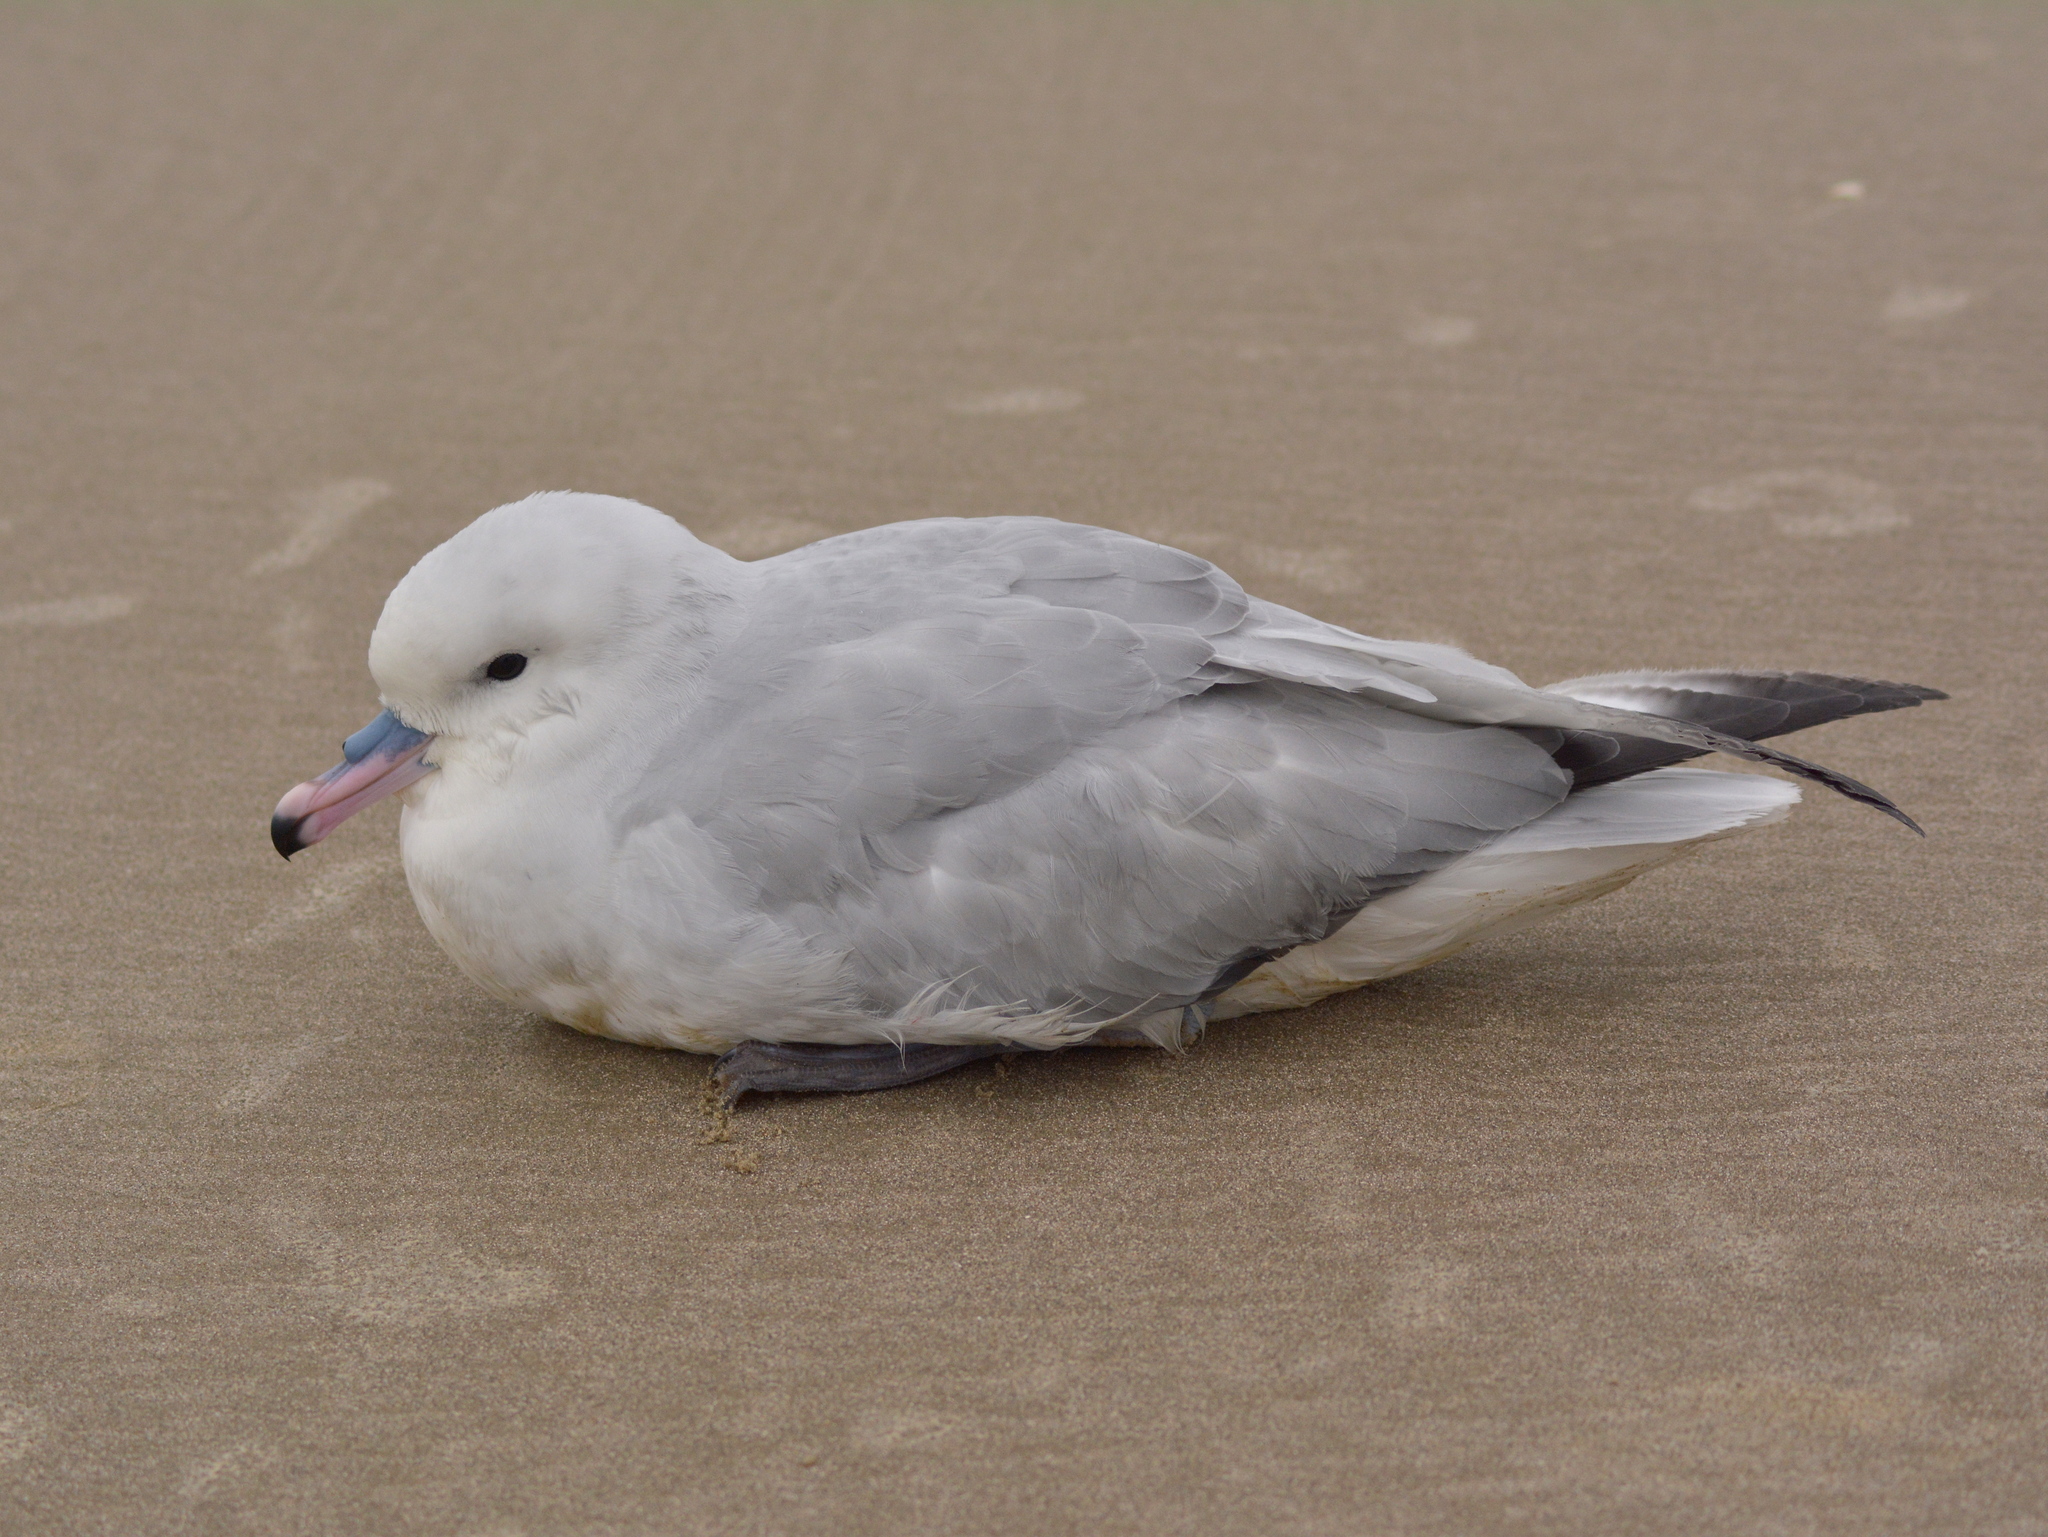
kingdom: Animalia
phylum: Chordata
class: Aves
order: Procellariiformes
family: Procellariidae
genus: Fulmarus
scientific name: Fulmarus glacialoides
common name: Southern fulmar
